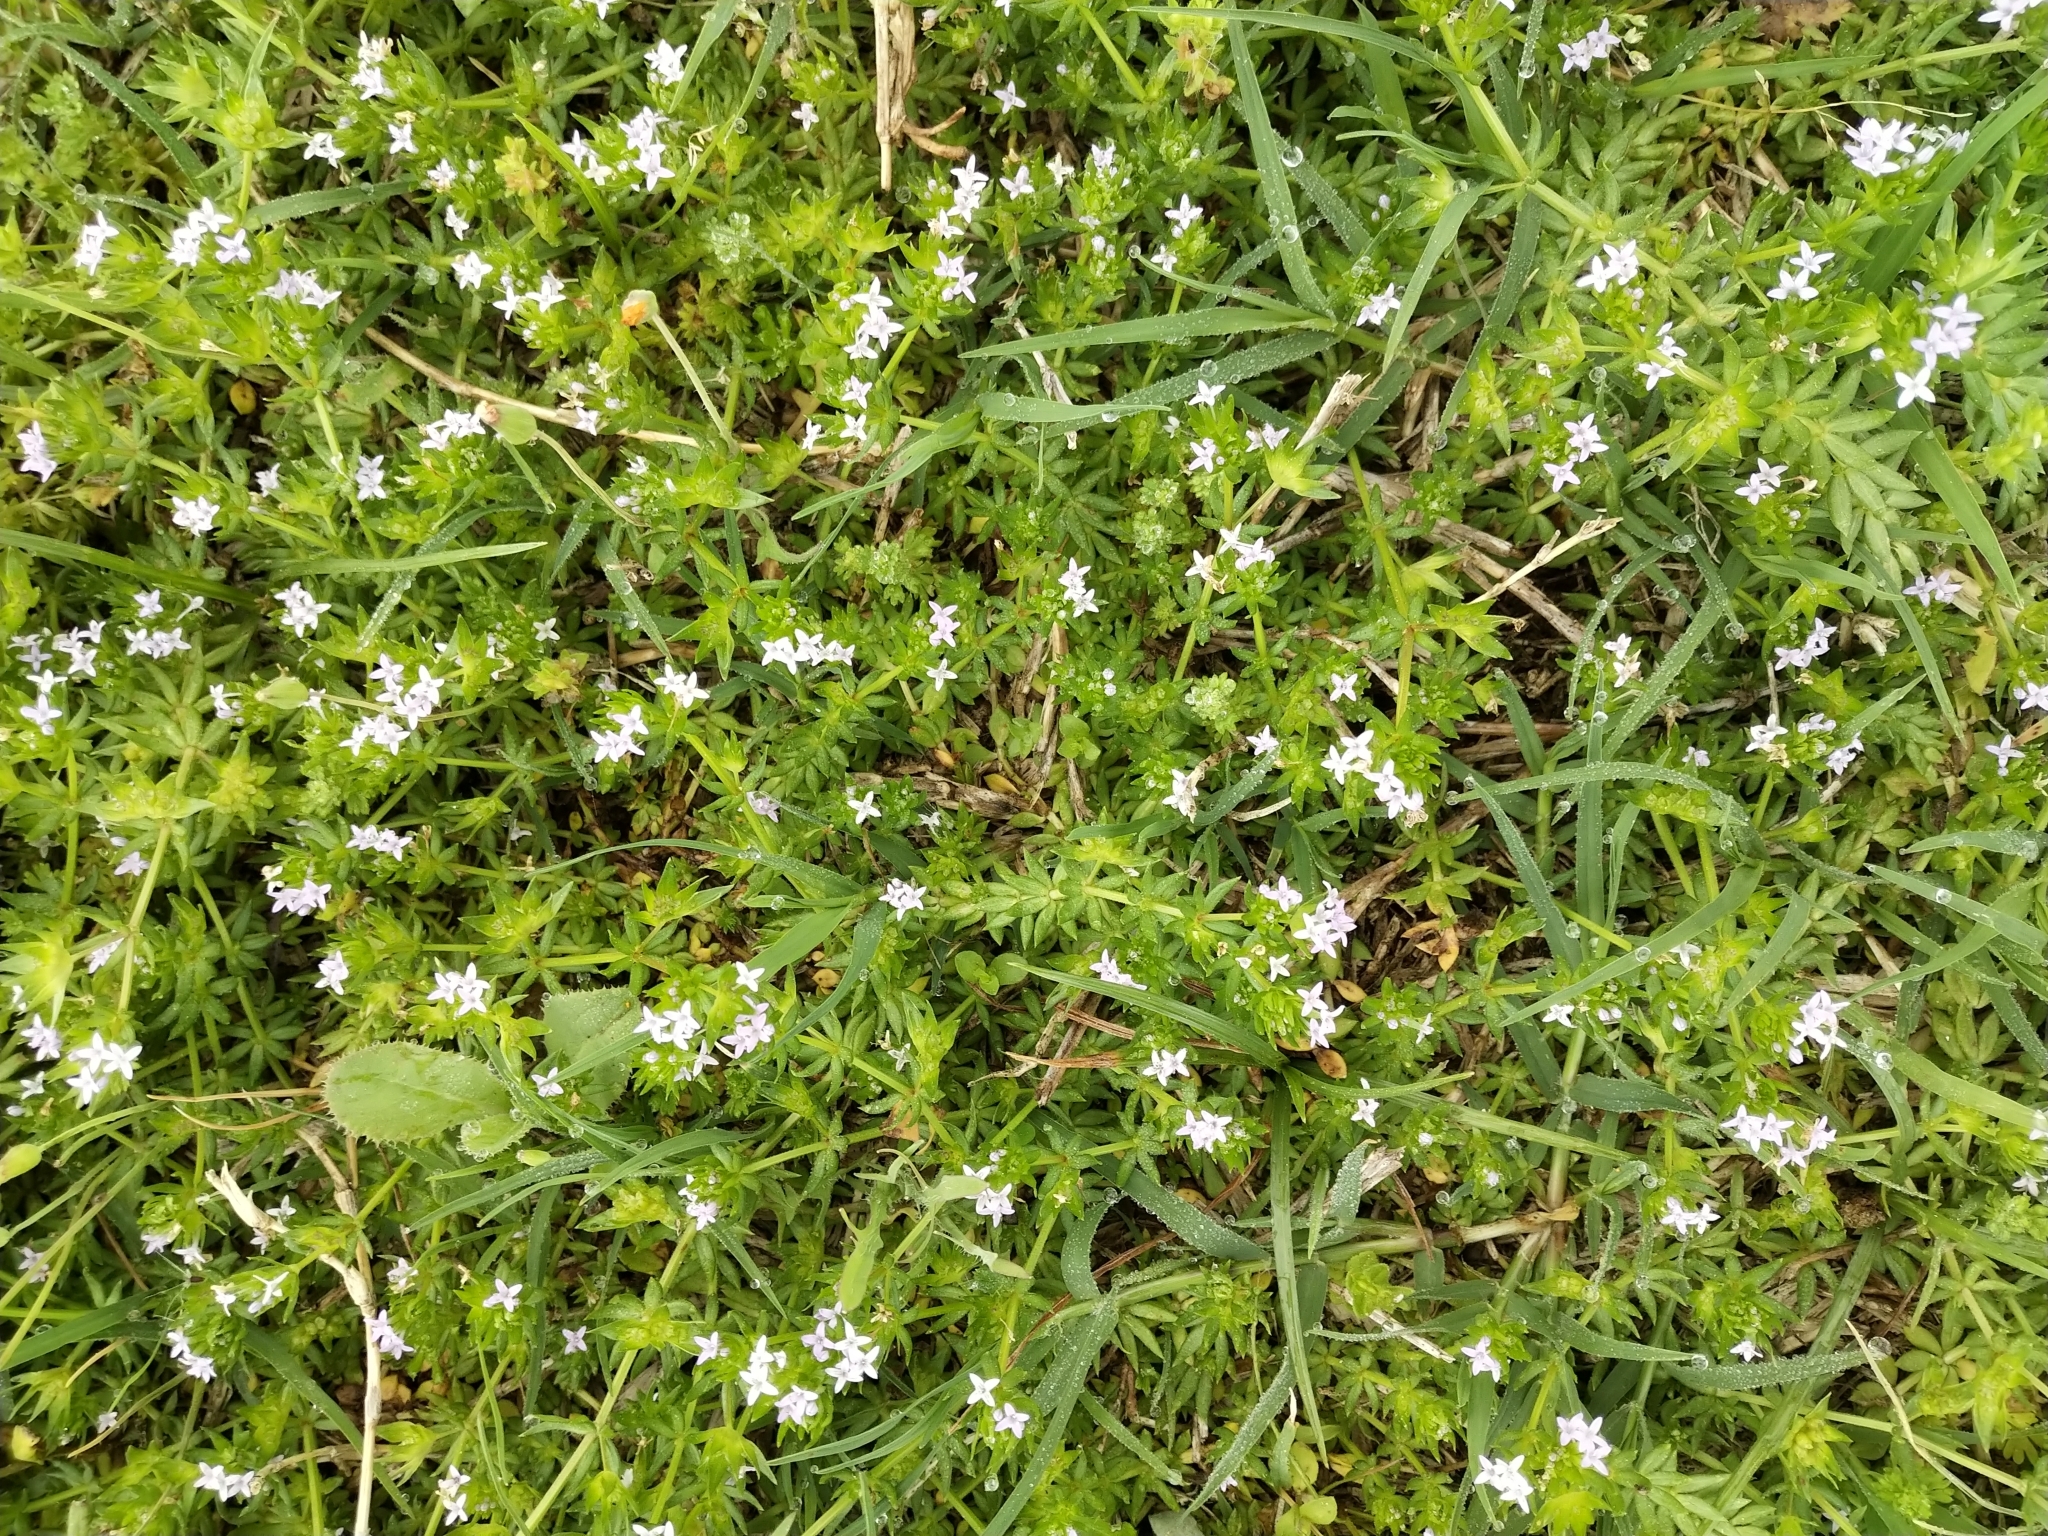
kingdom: Plantae
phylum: Tracheophyta
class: Magnoliopsida
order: Gentianales
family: Rubiaceae
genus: Sherardia
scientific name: Sherardia arvensis
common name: Field madder
